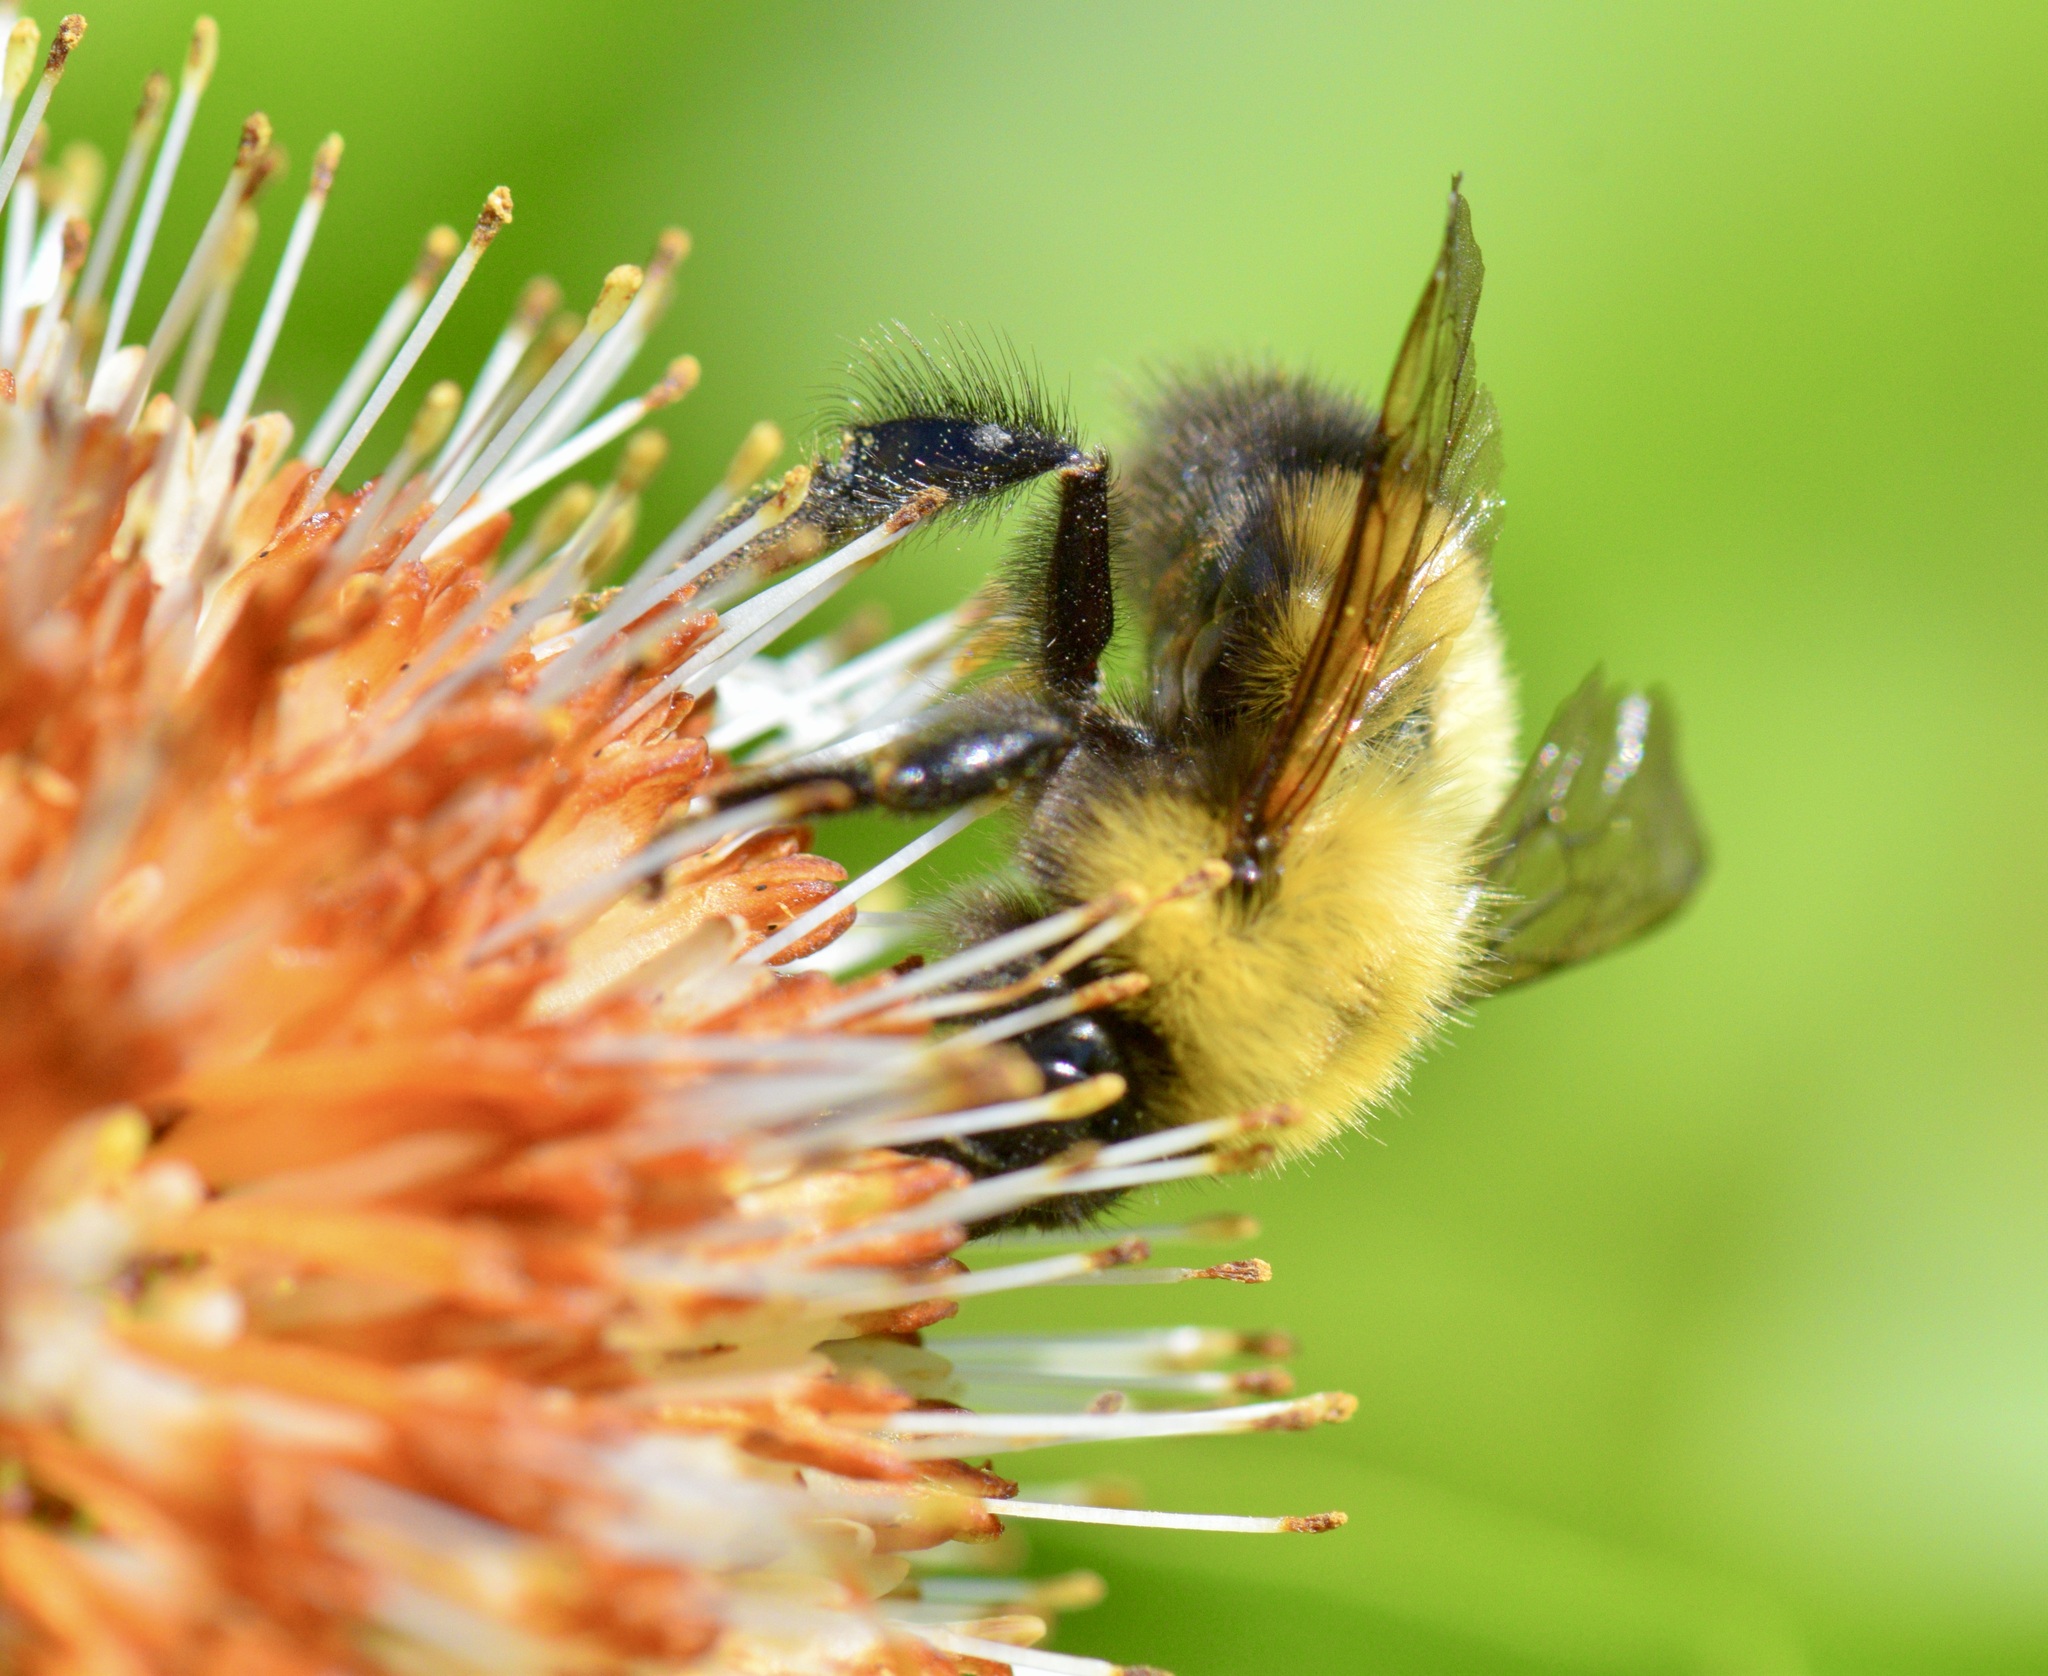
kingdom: Animalia
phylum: Arthropoda
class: Insecta
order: Hymenoptera
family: Apidae
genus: Bombus
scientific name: Bombus perplexus
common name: Confusing bumble bee
